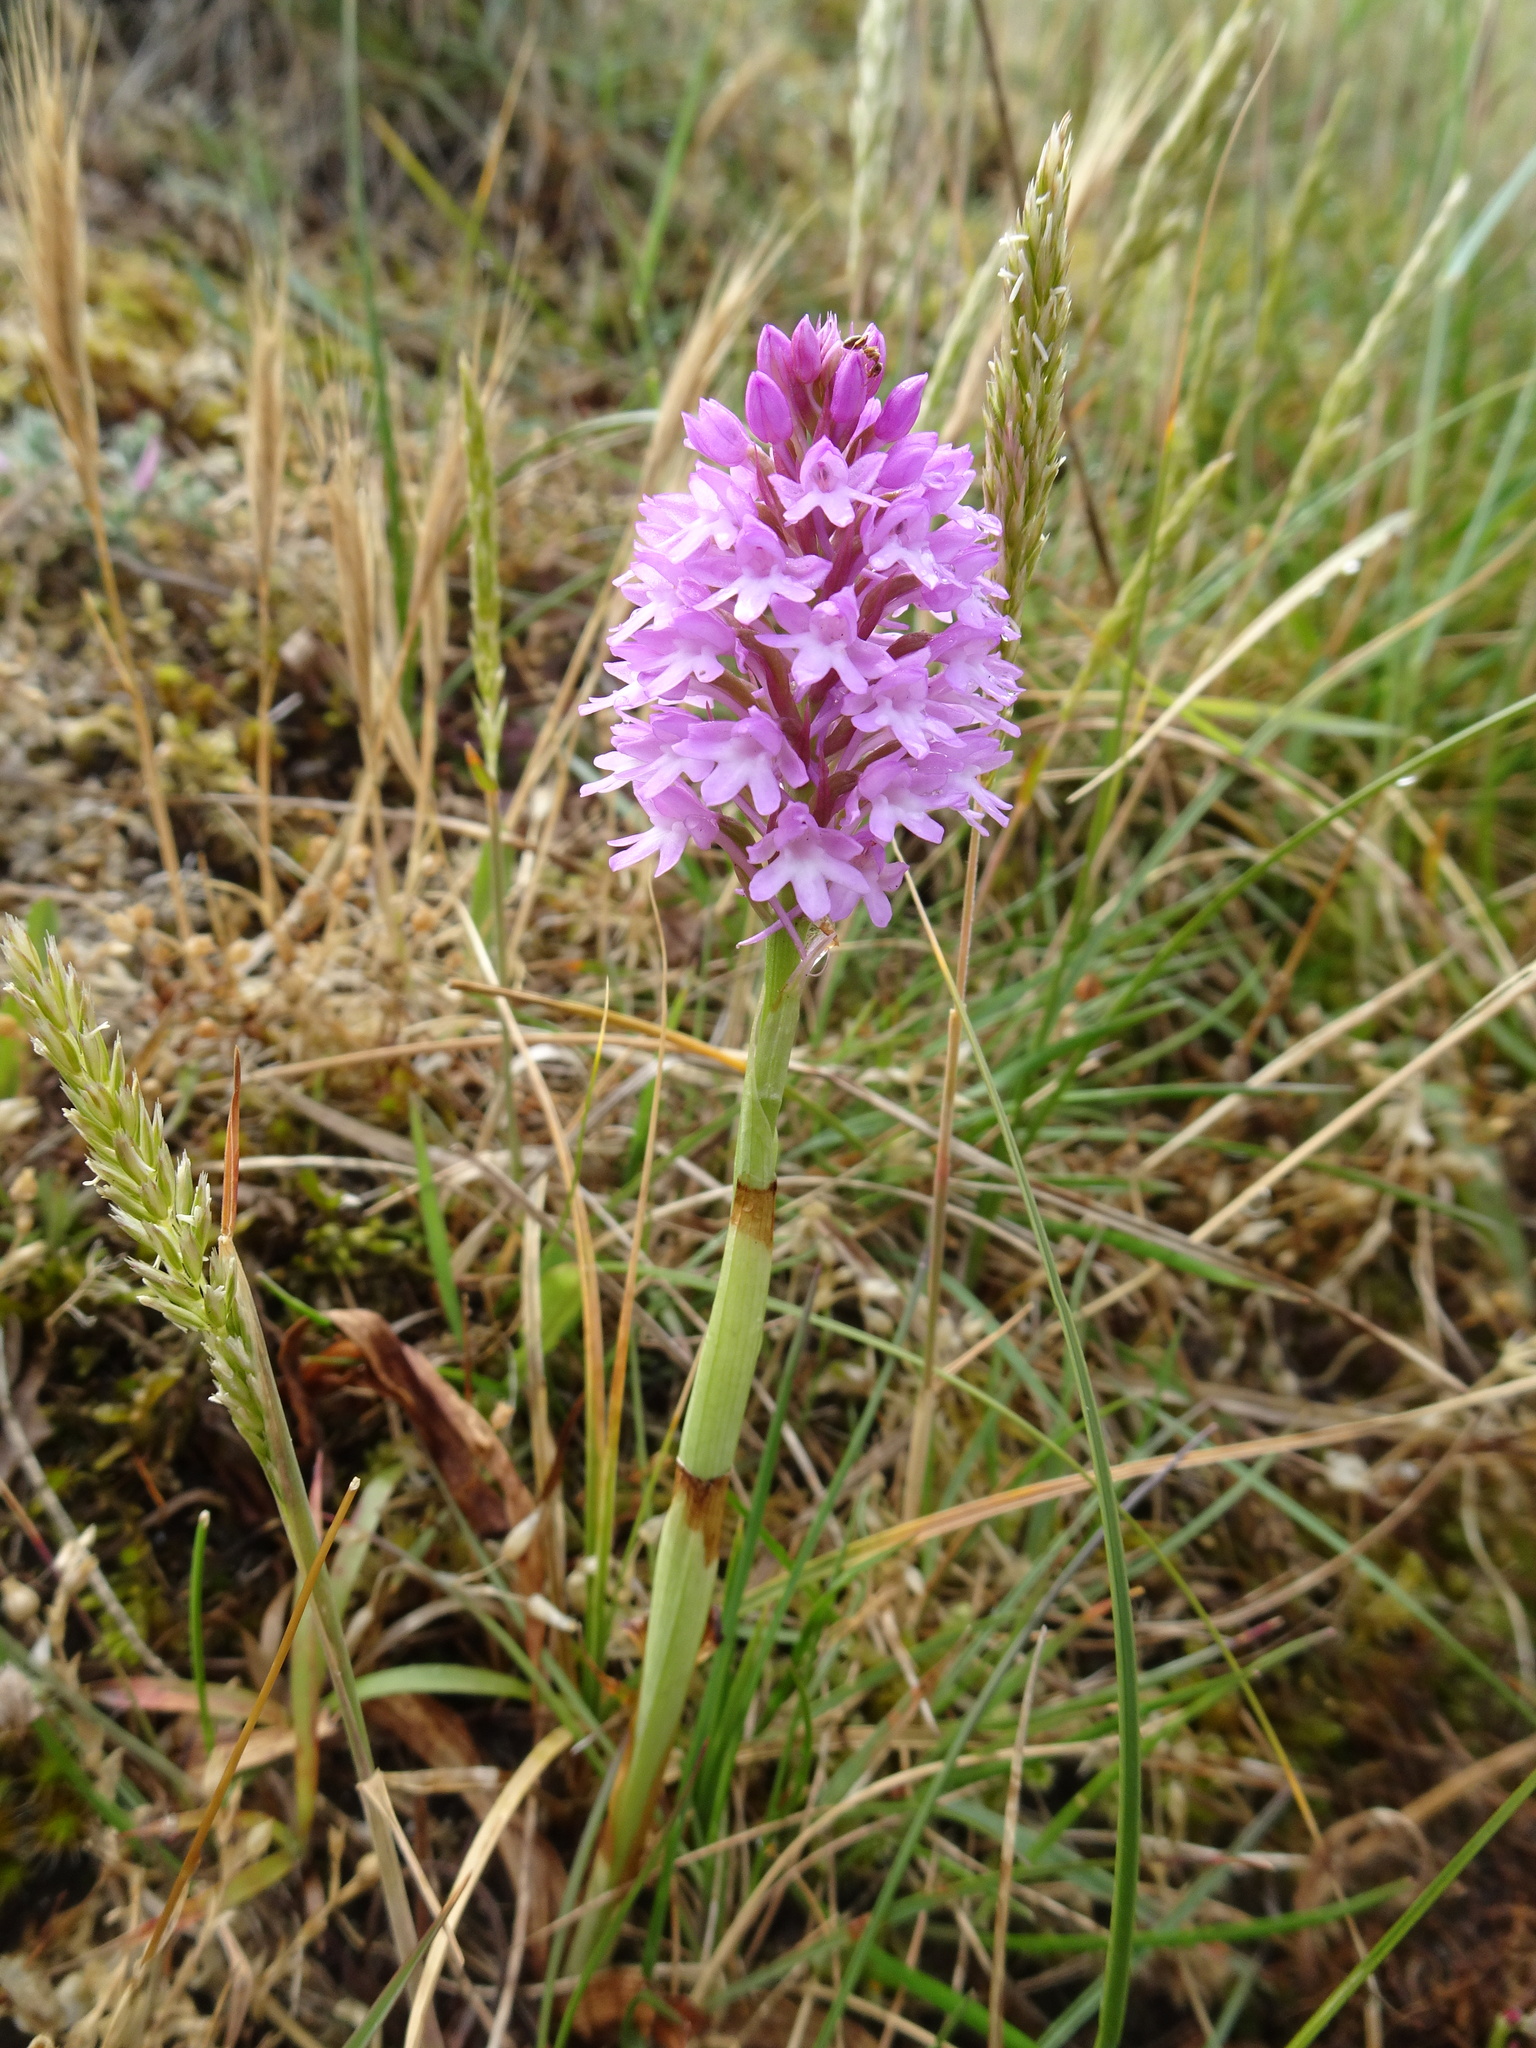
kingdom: Plantae
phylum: Tracheophyta
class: Liliopsida
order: Asparagales
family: Orchidaceae
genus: Anacamptis
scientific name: Anacamptis pyramidalis
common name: Pyramidal orchid
